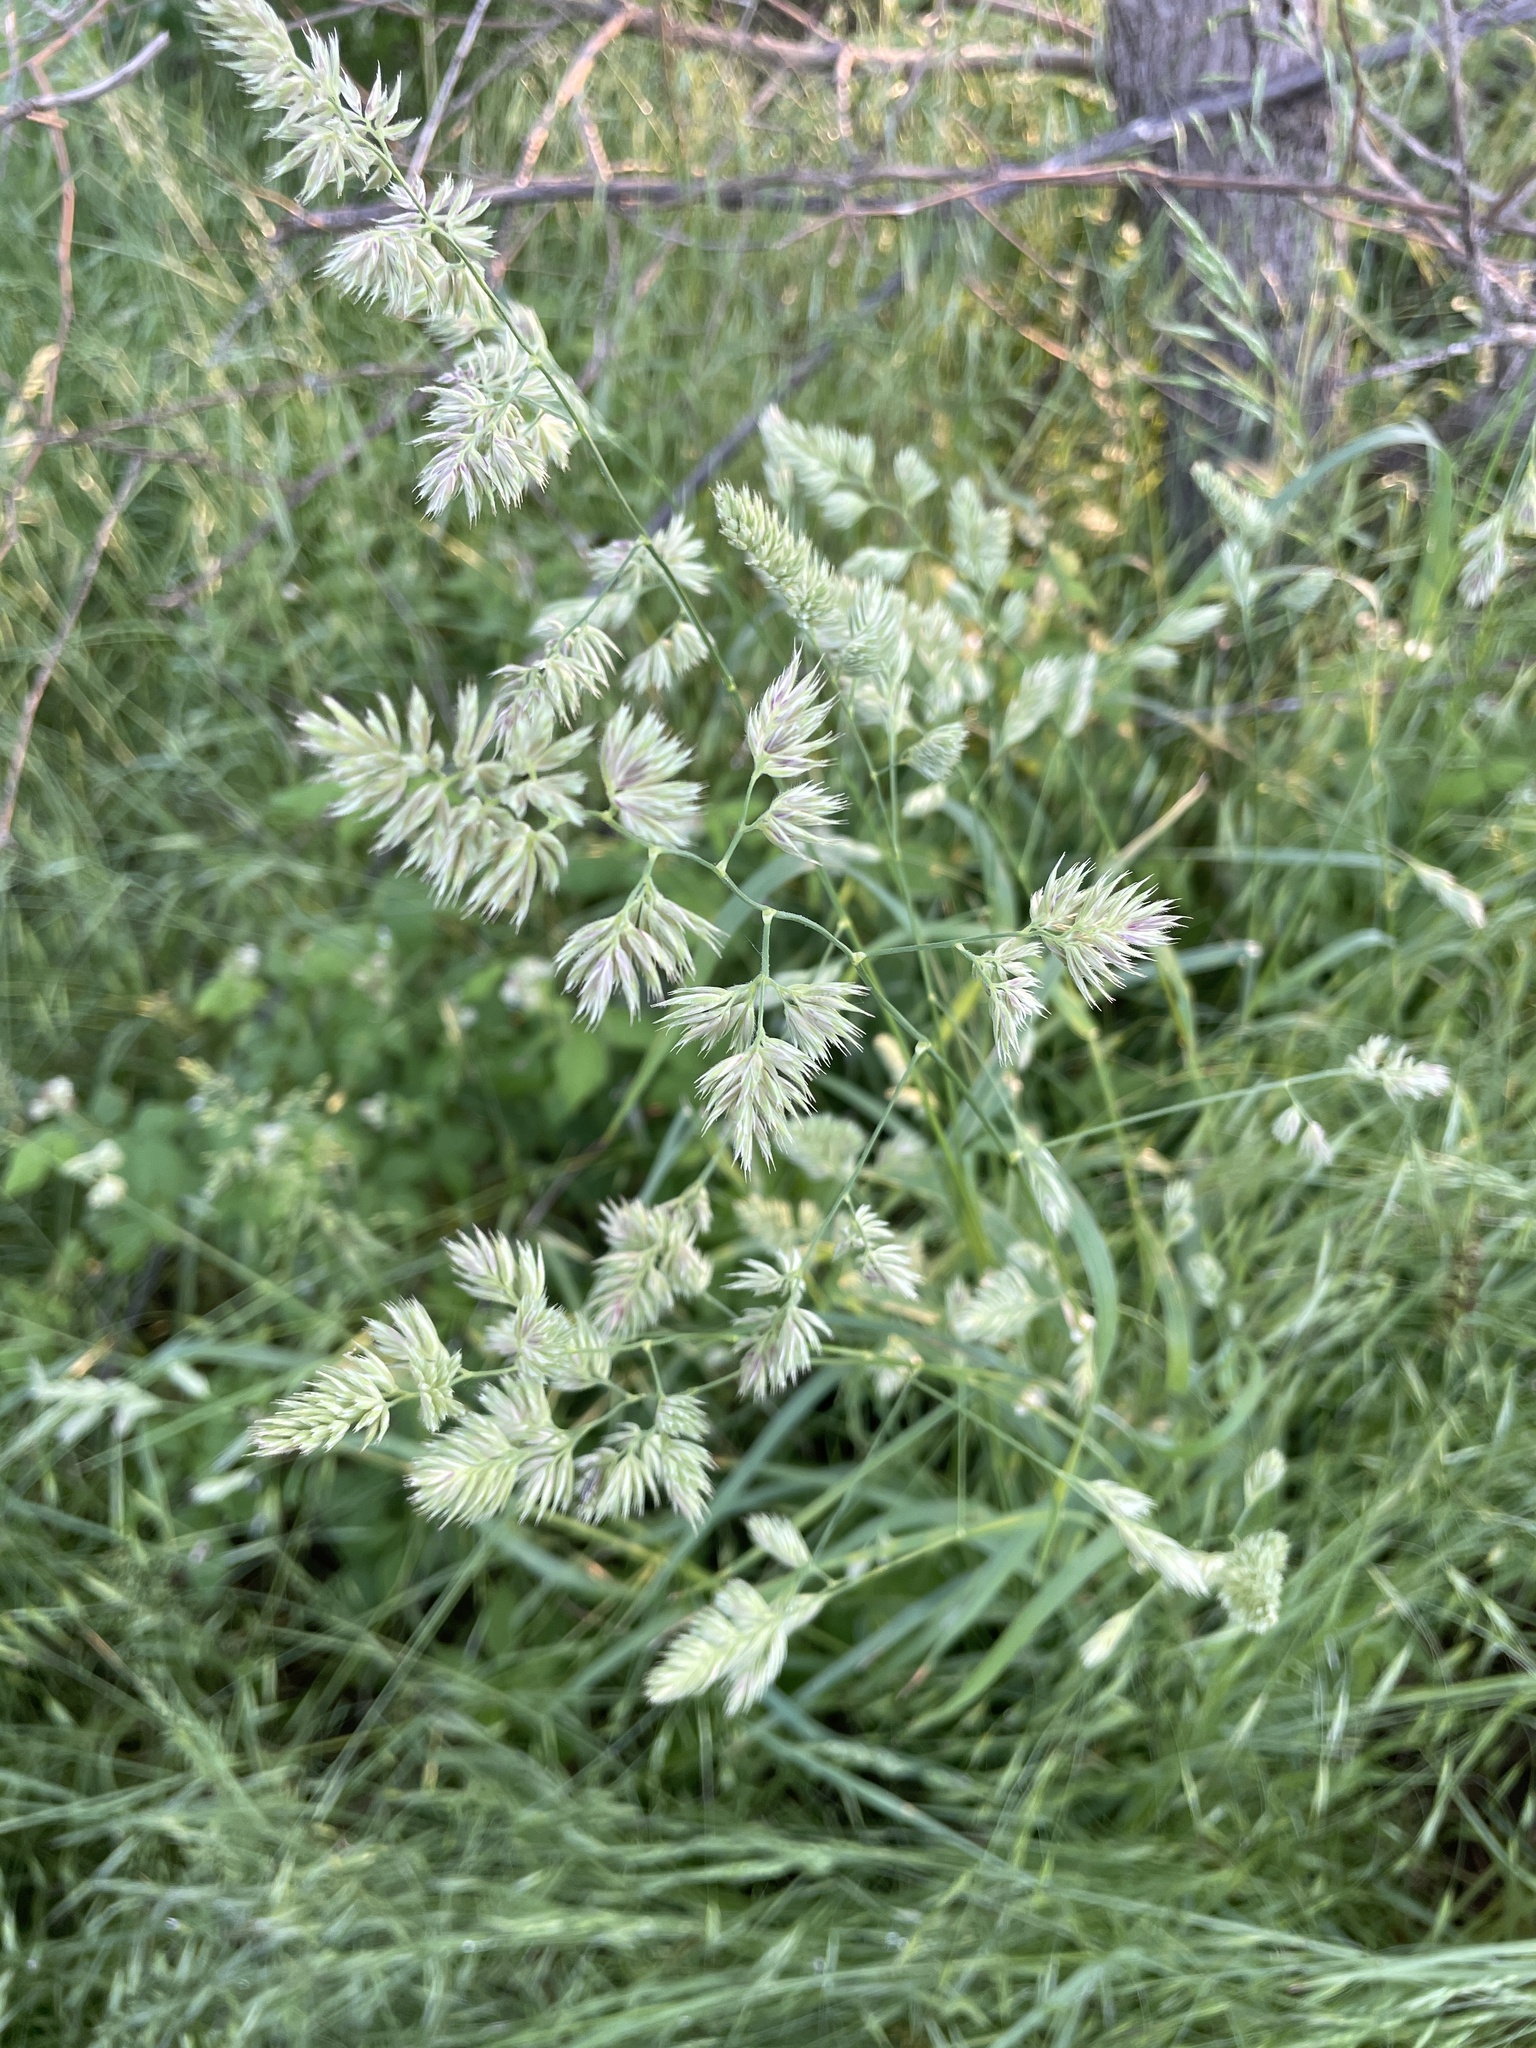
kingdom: Plantae
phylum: Tracheophyta
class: Liliopsida
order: Poales
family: Poaceae
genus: Dactylis
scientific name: Dactylis glomerata
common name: Orchardgrass
